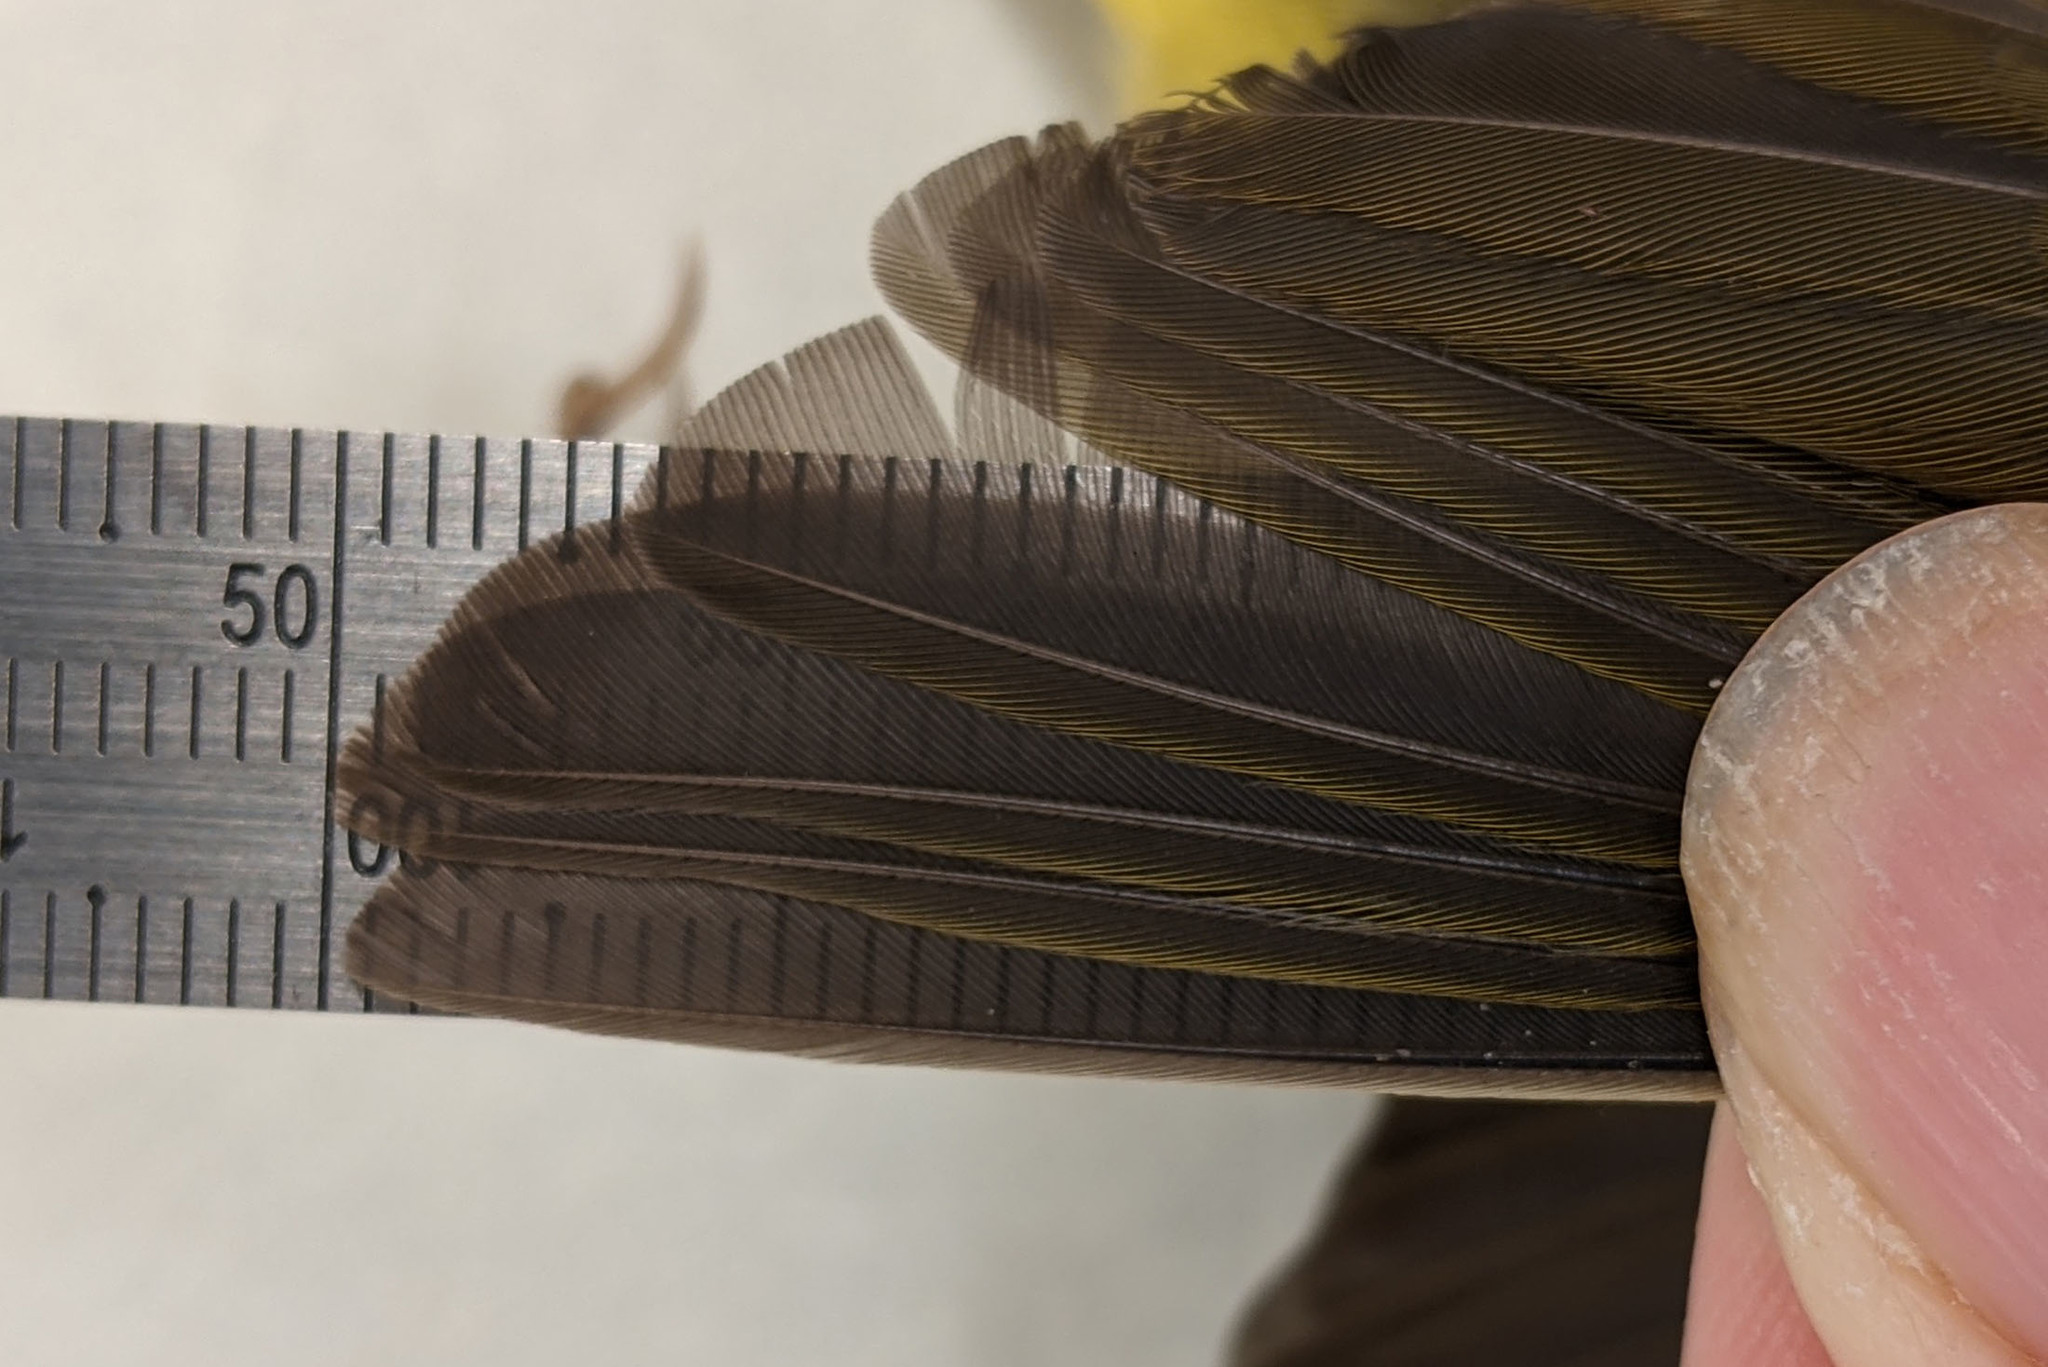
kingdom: Animalia
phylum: Chordata
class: Aves
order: Passeriformes
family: Parulidae
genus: Oporornis
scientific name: Oporornis agilis
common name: Connecticut warbler
